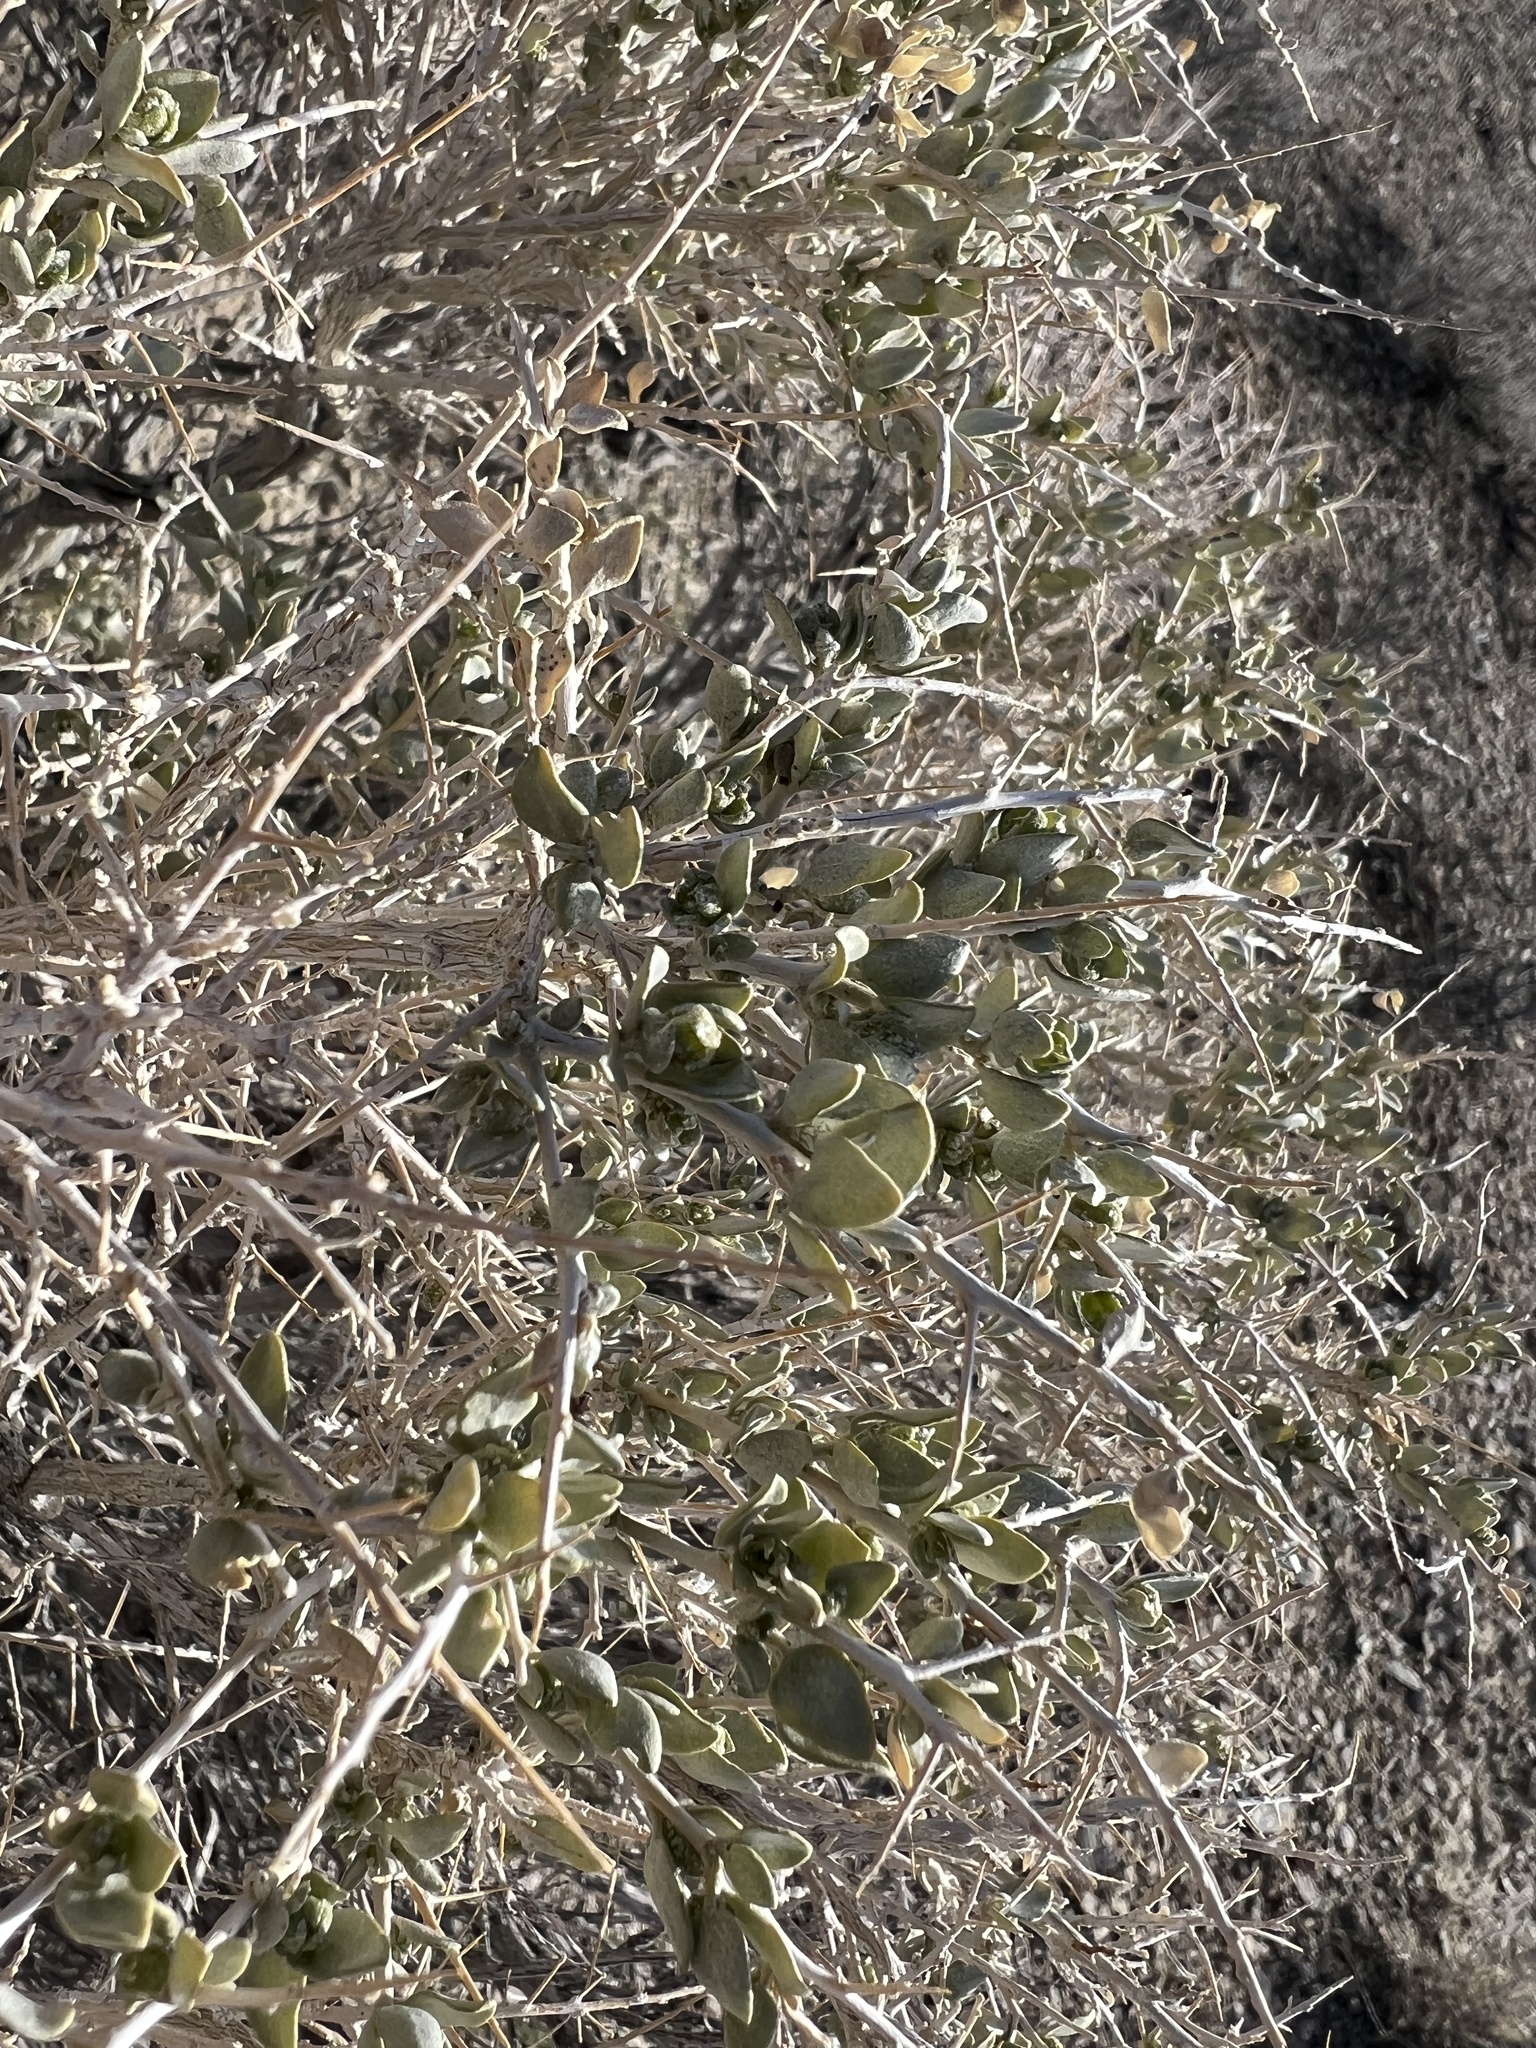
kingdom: Plantae
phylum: Tracheophyta
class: Magnoliopsida
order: Caryophyllales
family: Amaranthaceae
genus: Atriplex
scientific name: Atriplex confertifolia
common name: Shadscale
